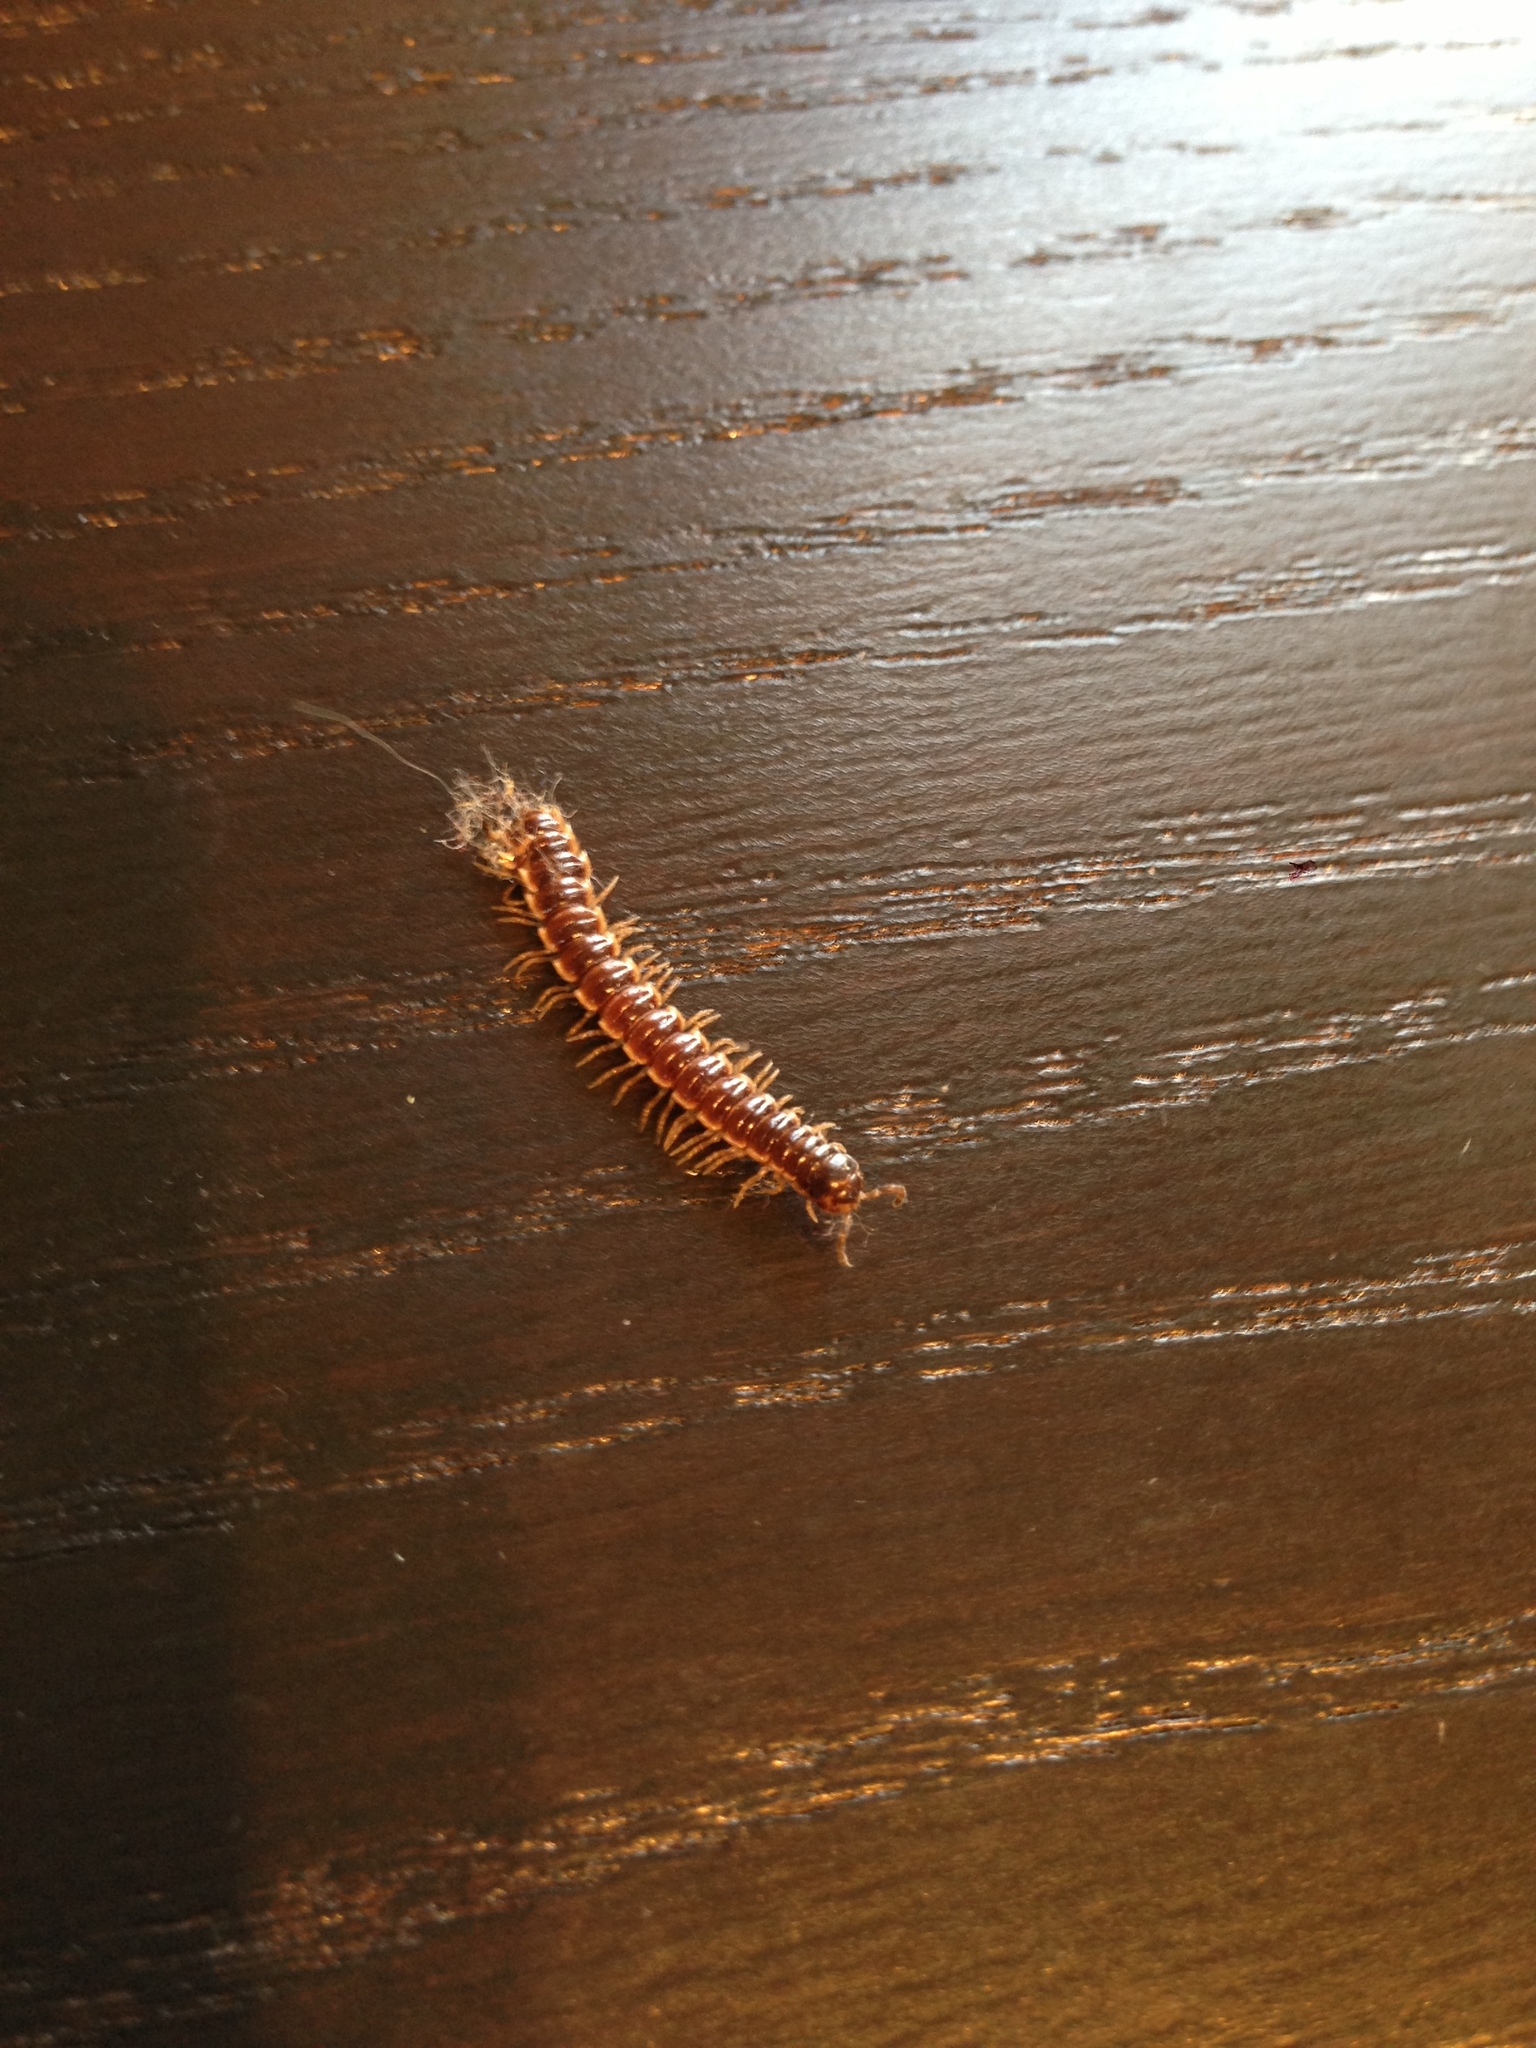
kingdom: Animalia
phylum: Arthropoda
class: Diplopoda
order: Polydesmida
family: Paradoxosomatidae
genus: Oxidus
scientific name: Oxidus gracilis
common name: Greenhouse millipede
